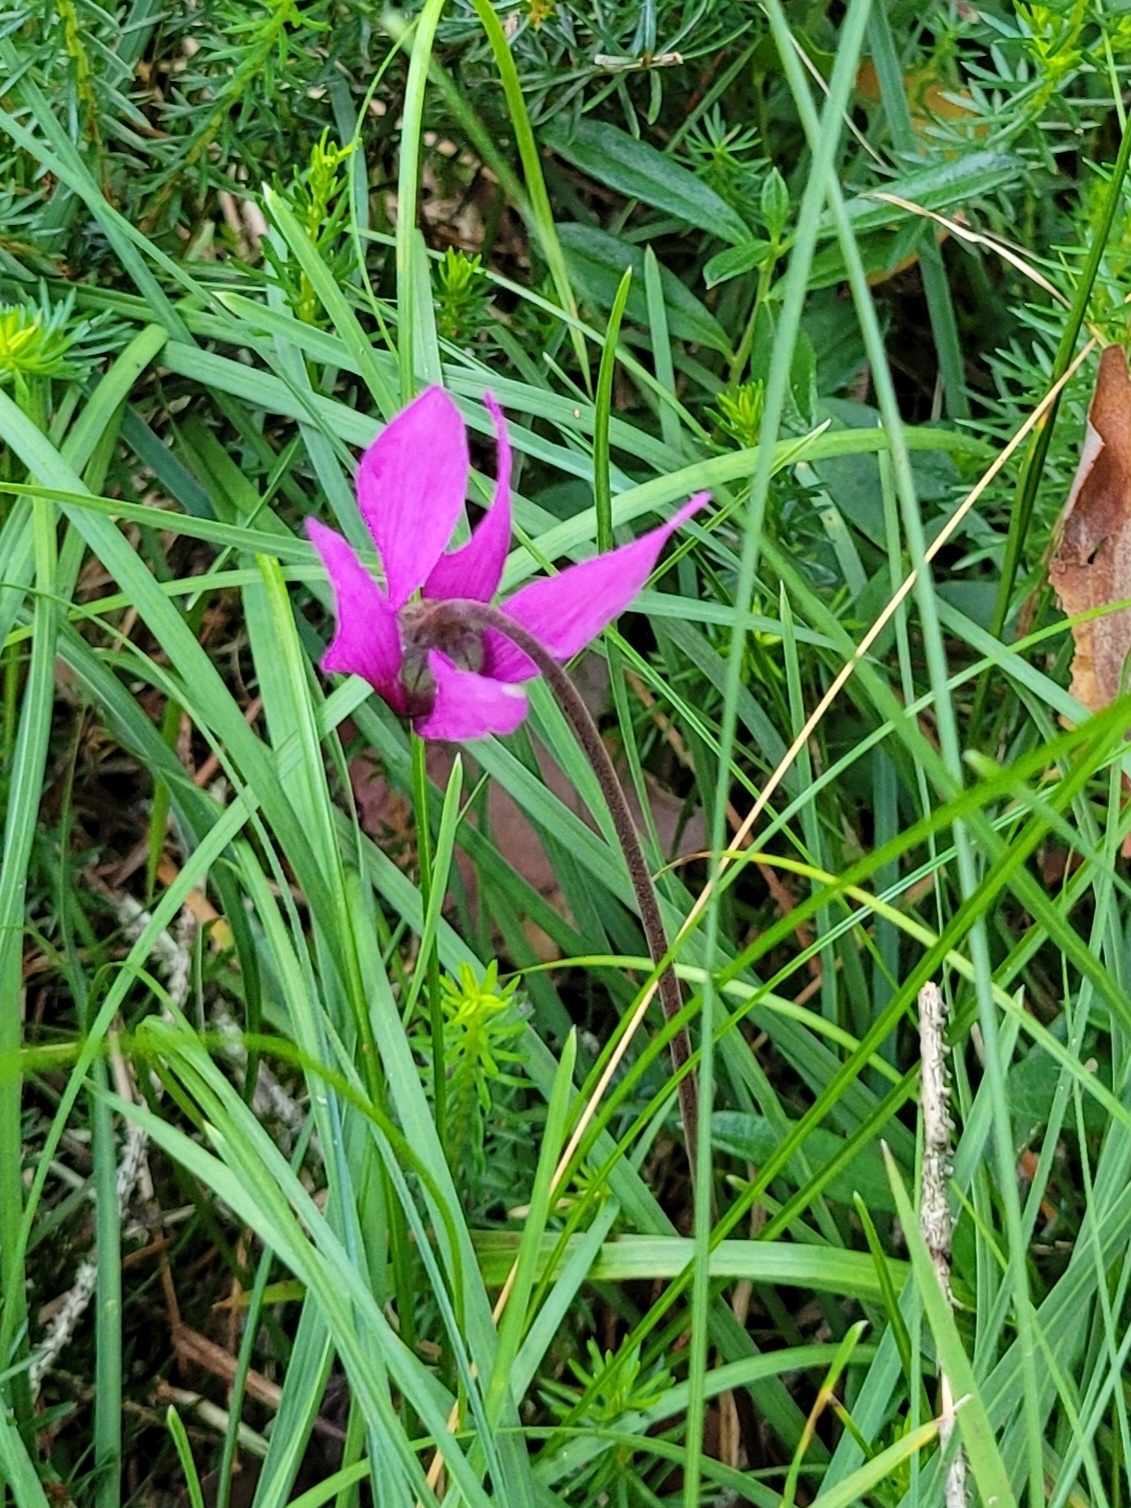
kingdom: Plantae
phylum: Tracheophyta
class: Magnoliopsida
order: Ericales
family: Primulaceae
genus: Cyclamen
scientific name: Cyclamen purpurascens
